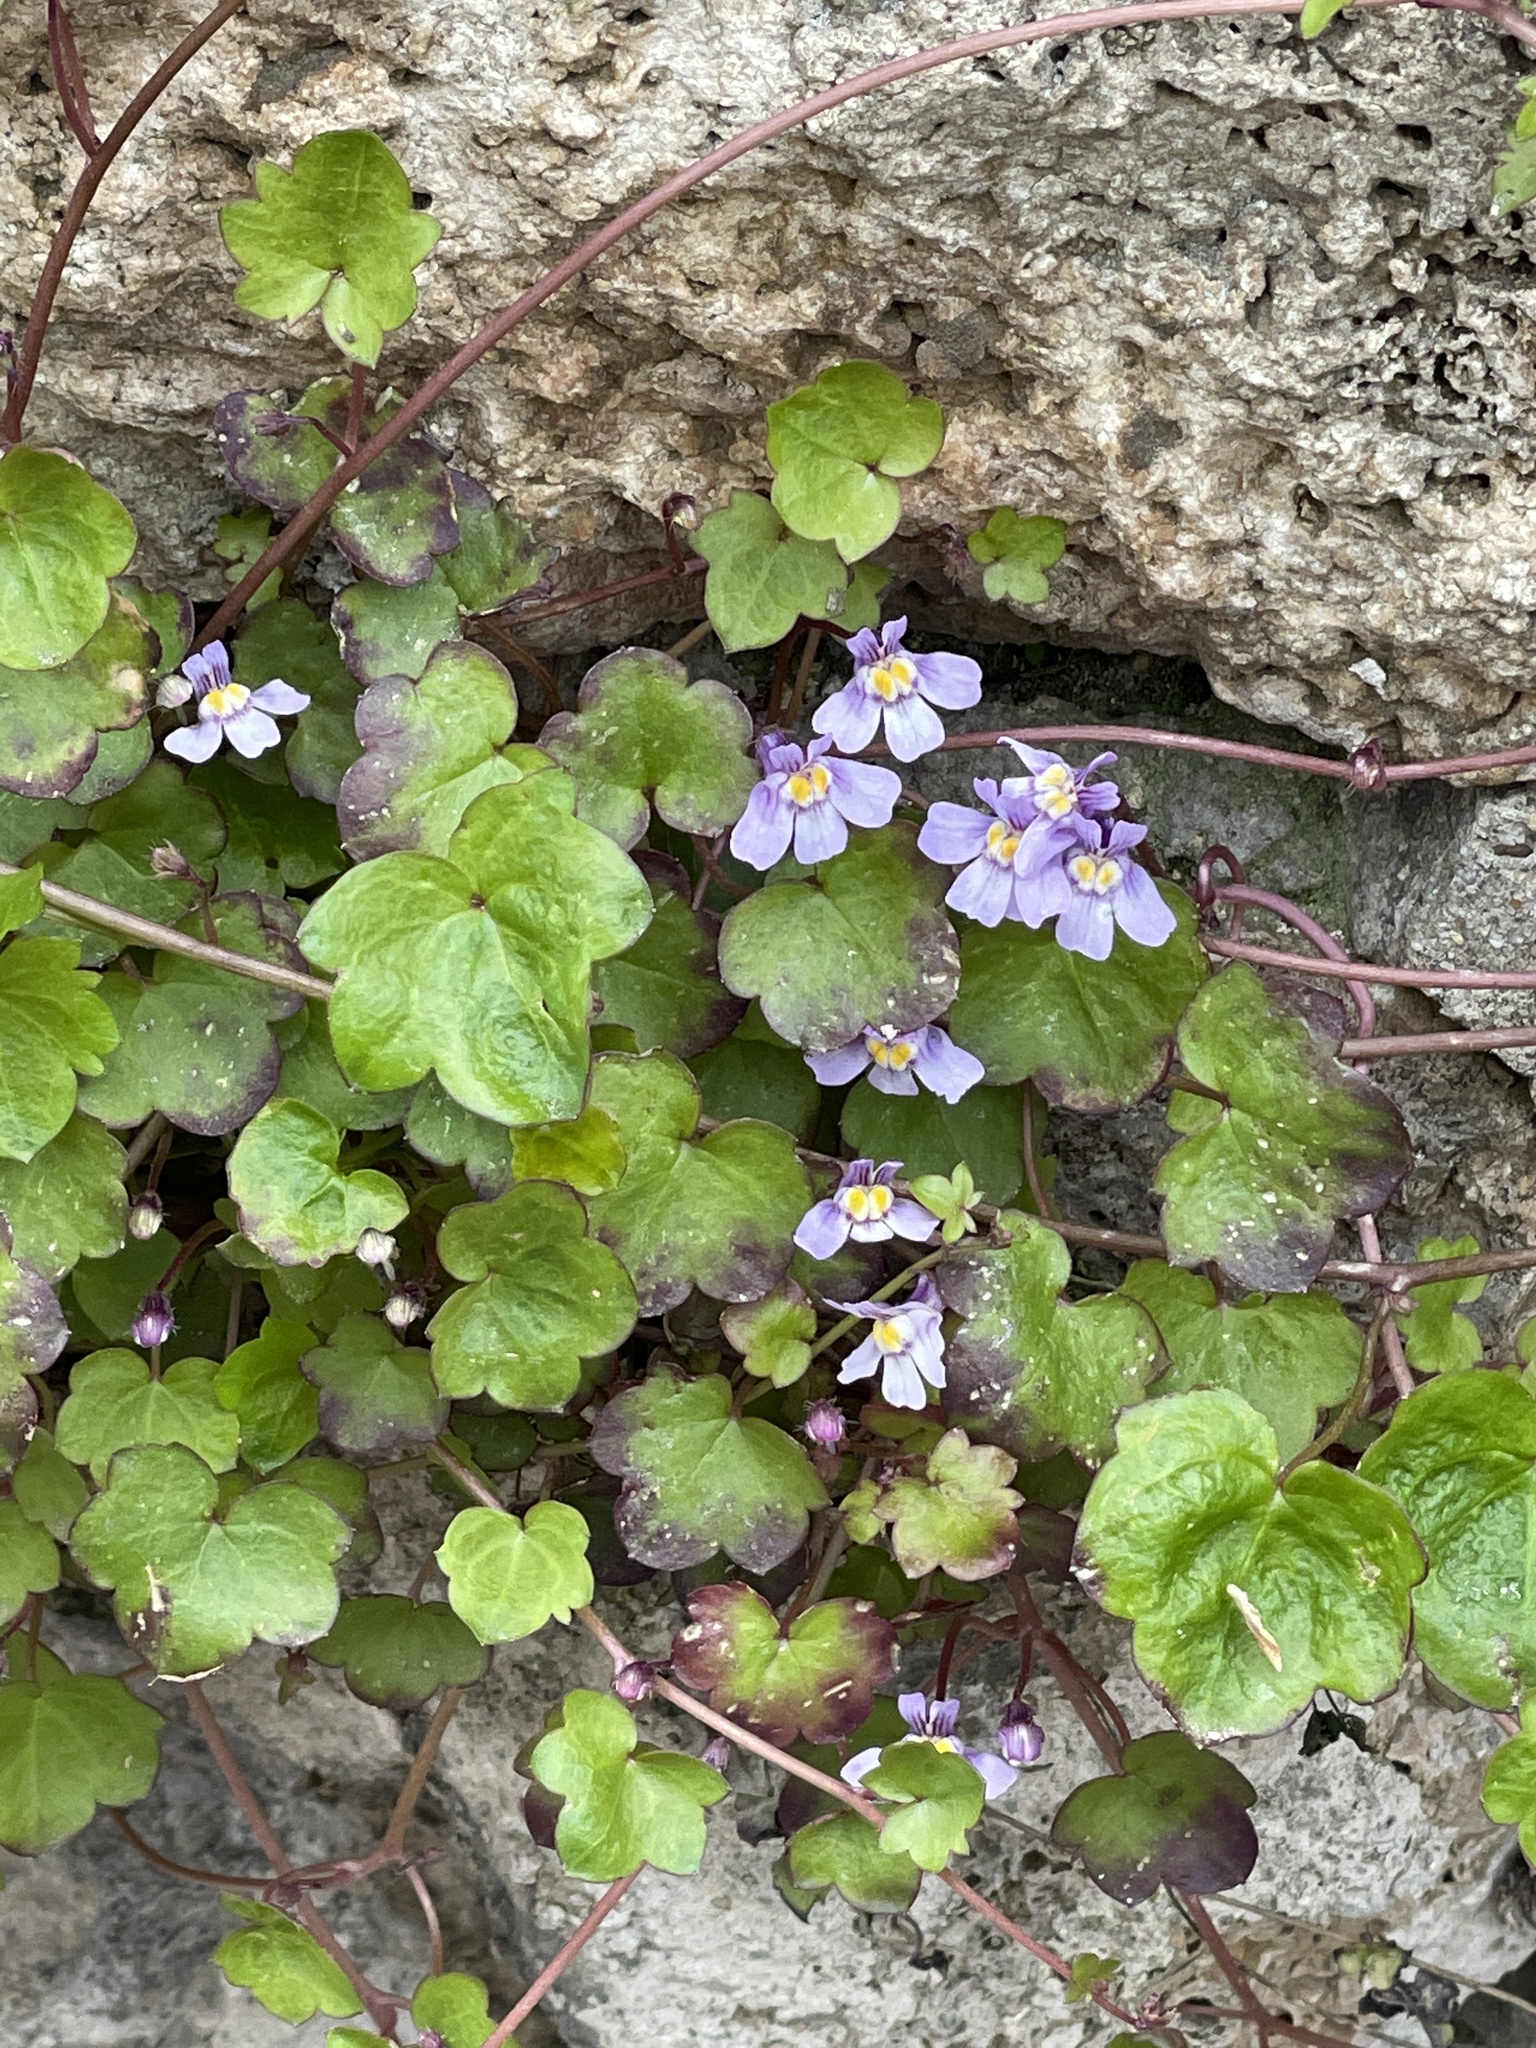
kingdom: Plantae
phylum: Tracheophyta
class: Magnoliopsida
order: Lamiales
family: Plantaginaceae
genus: Cymbalaria
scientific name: Cymbalaria muralis
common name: Ivy-leaved toadflax
